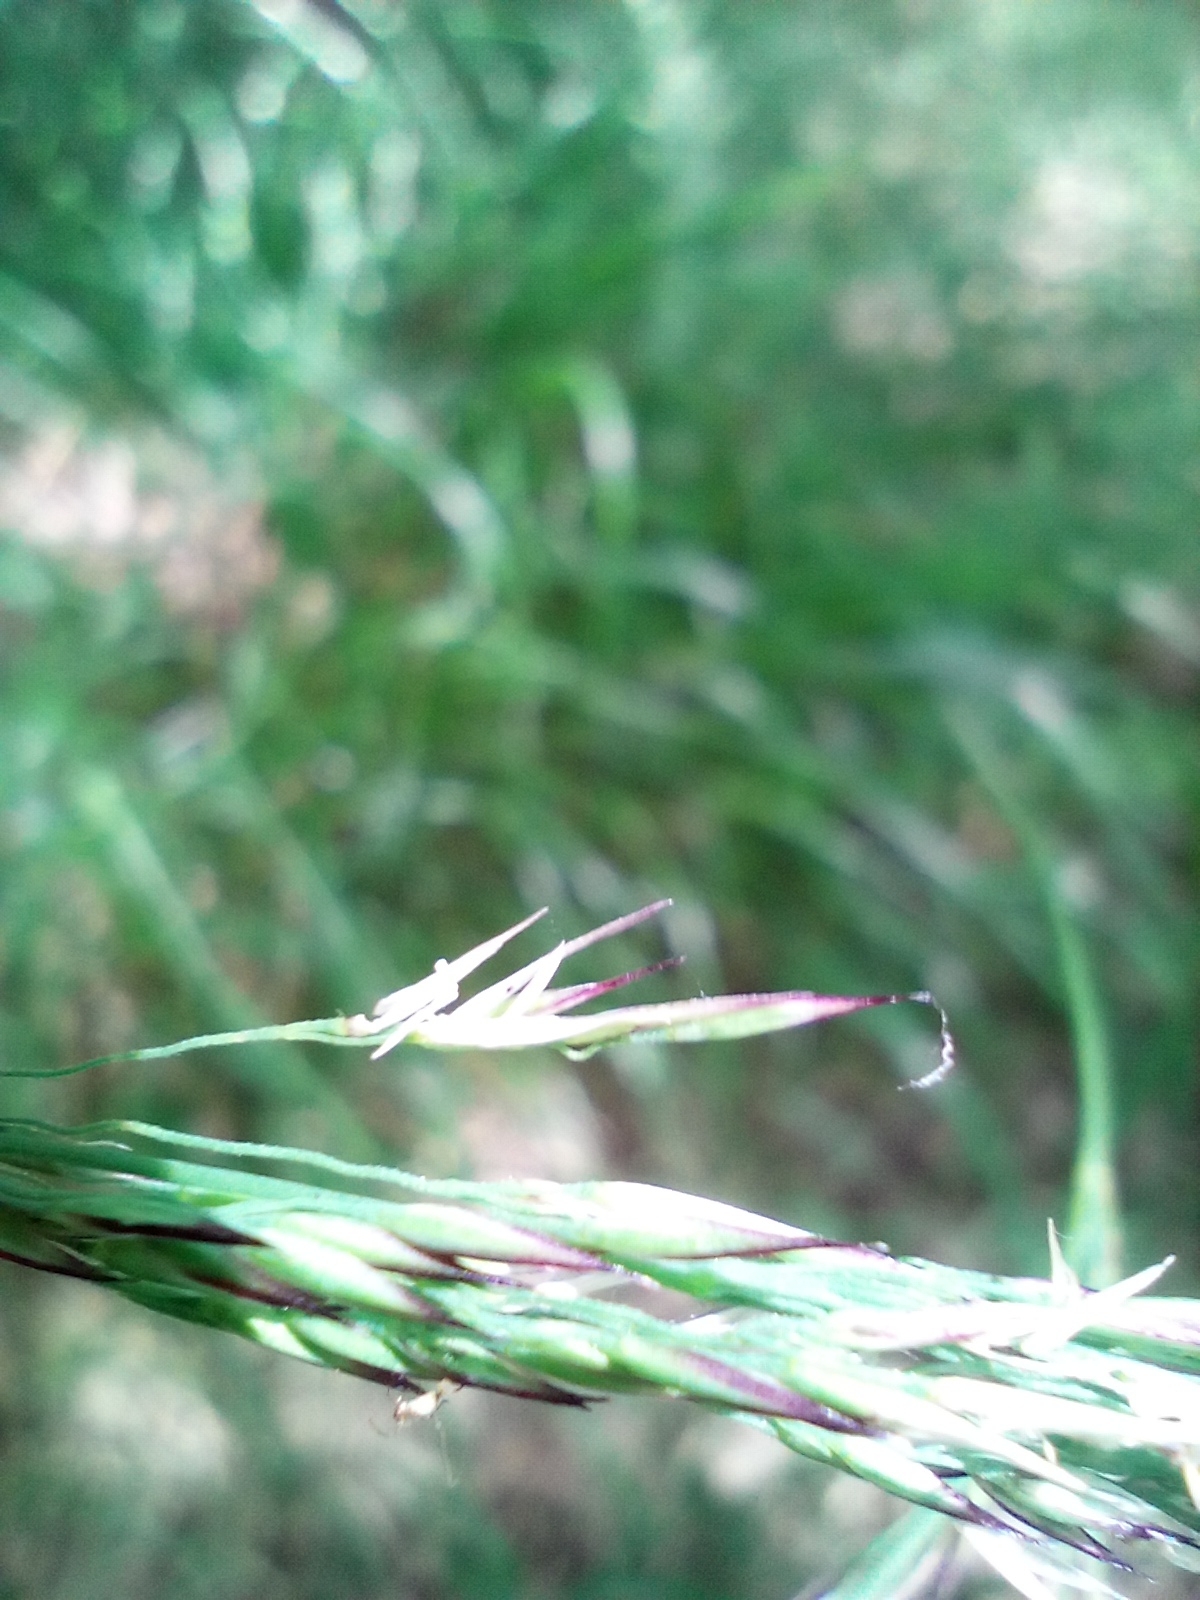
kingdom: Plantae
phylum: Tracheophyta
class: Liliopsida
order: Poales
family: Poaceae
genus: Calamagrostis
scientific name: Calamagrostis villosa
